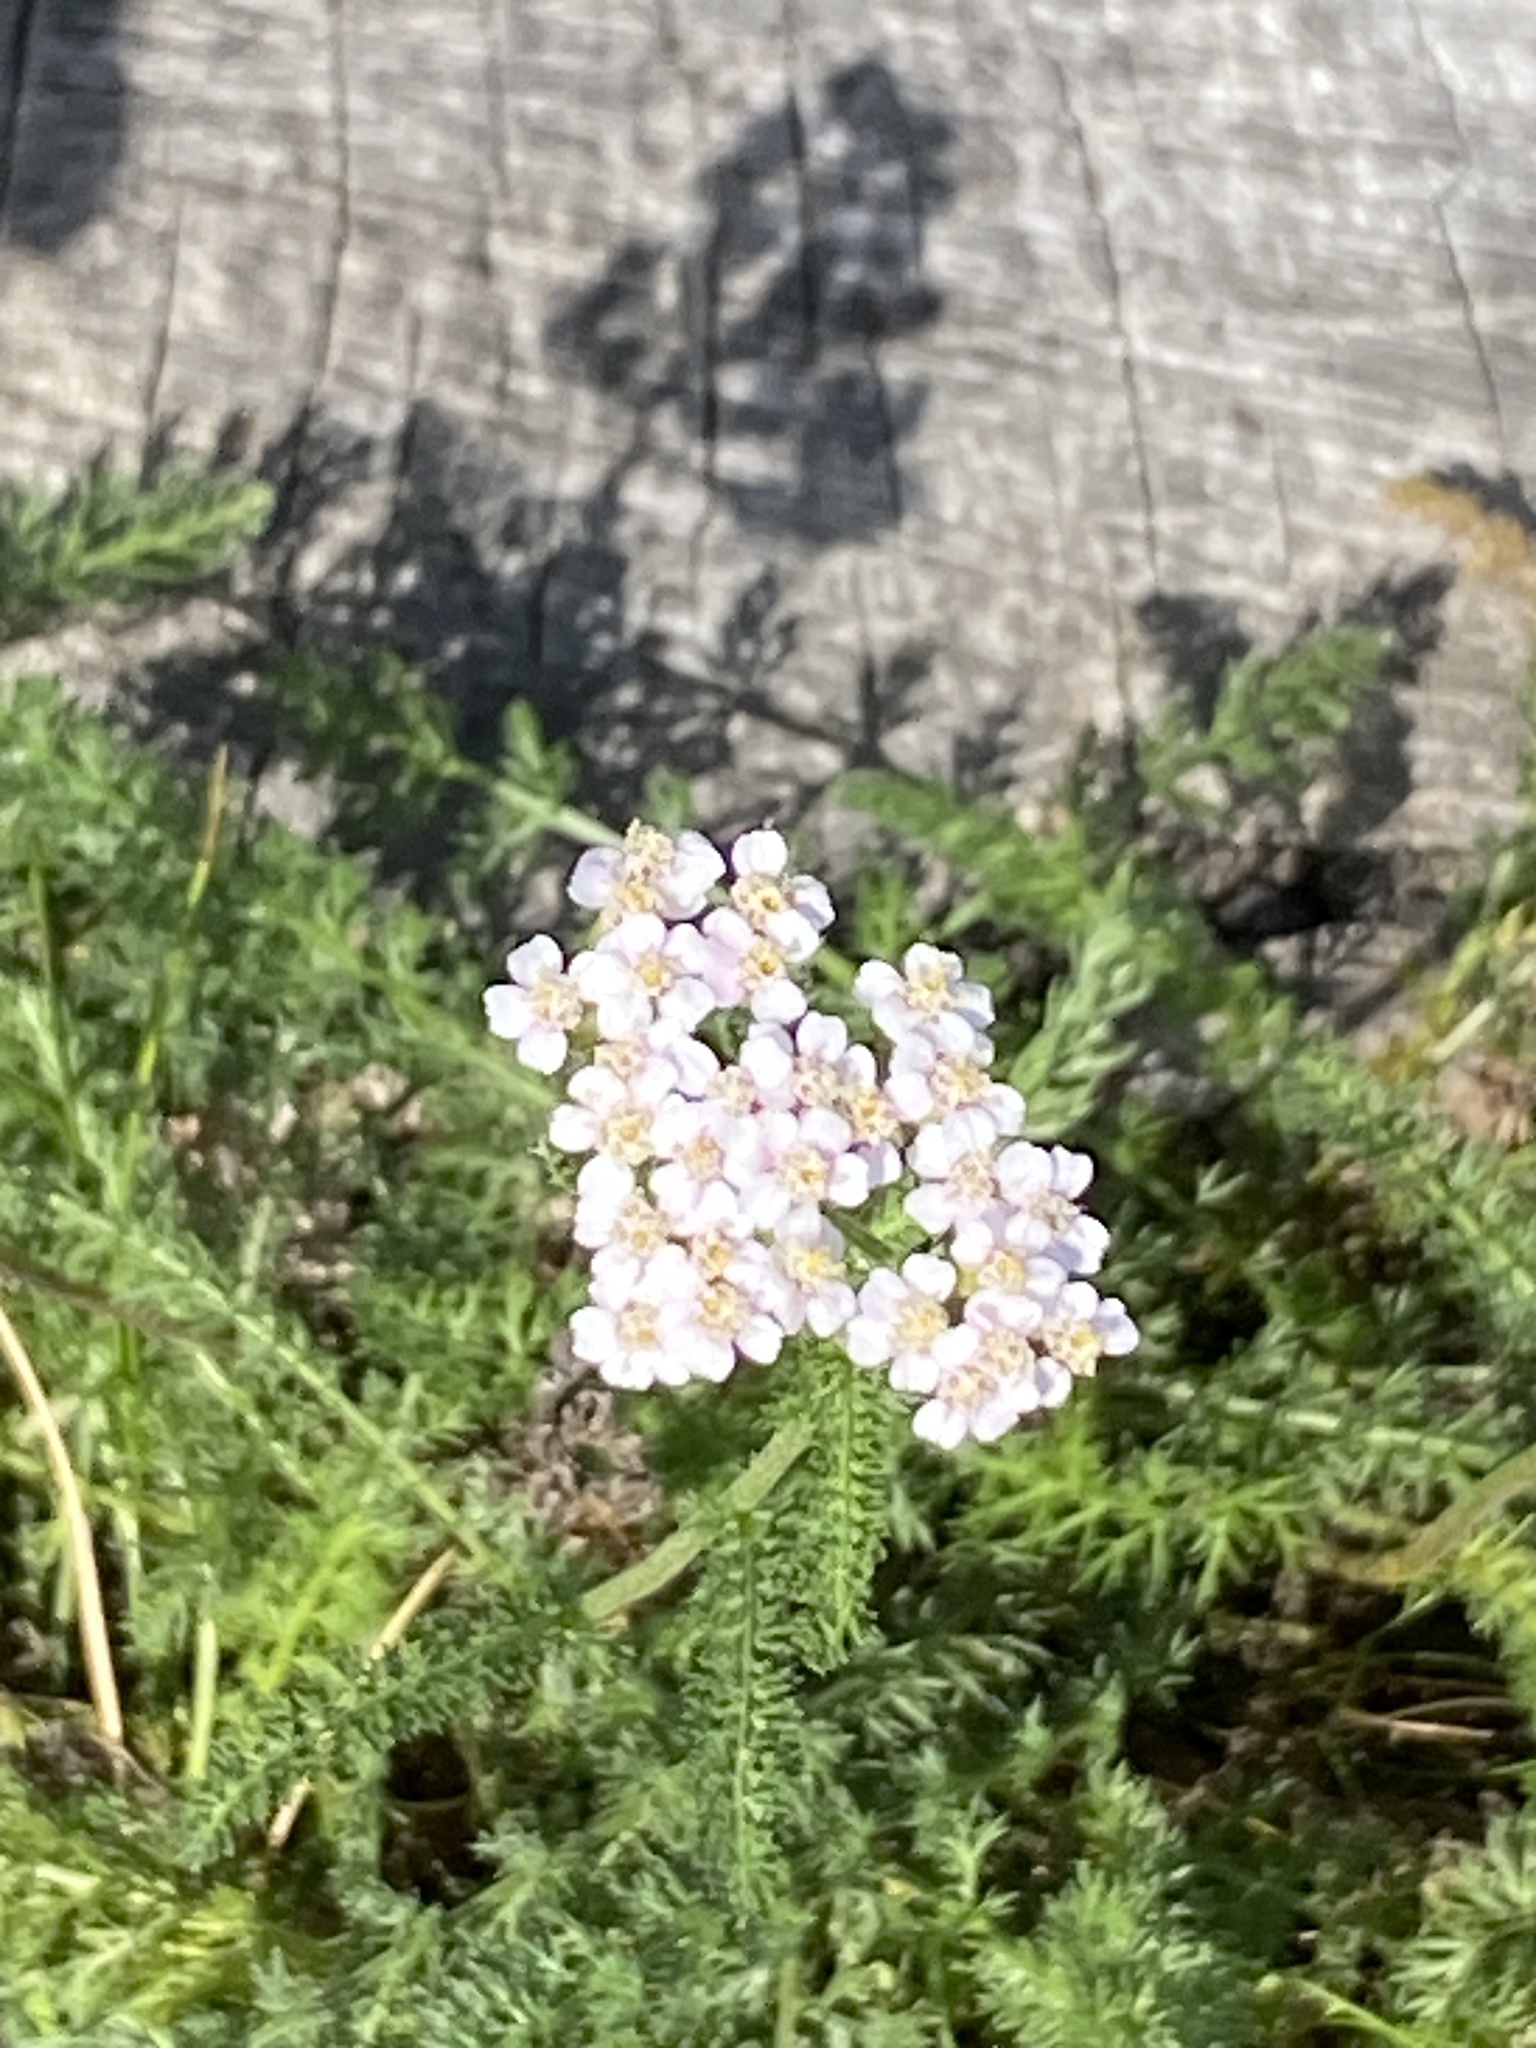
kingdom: Plantae
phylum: Tracheophyta
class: Magnoliopsida
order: Asterales
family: Asteraceae
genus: Achillea
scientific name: Achillea millefolium
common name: Yarrow
